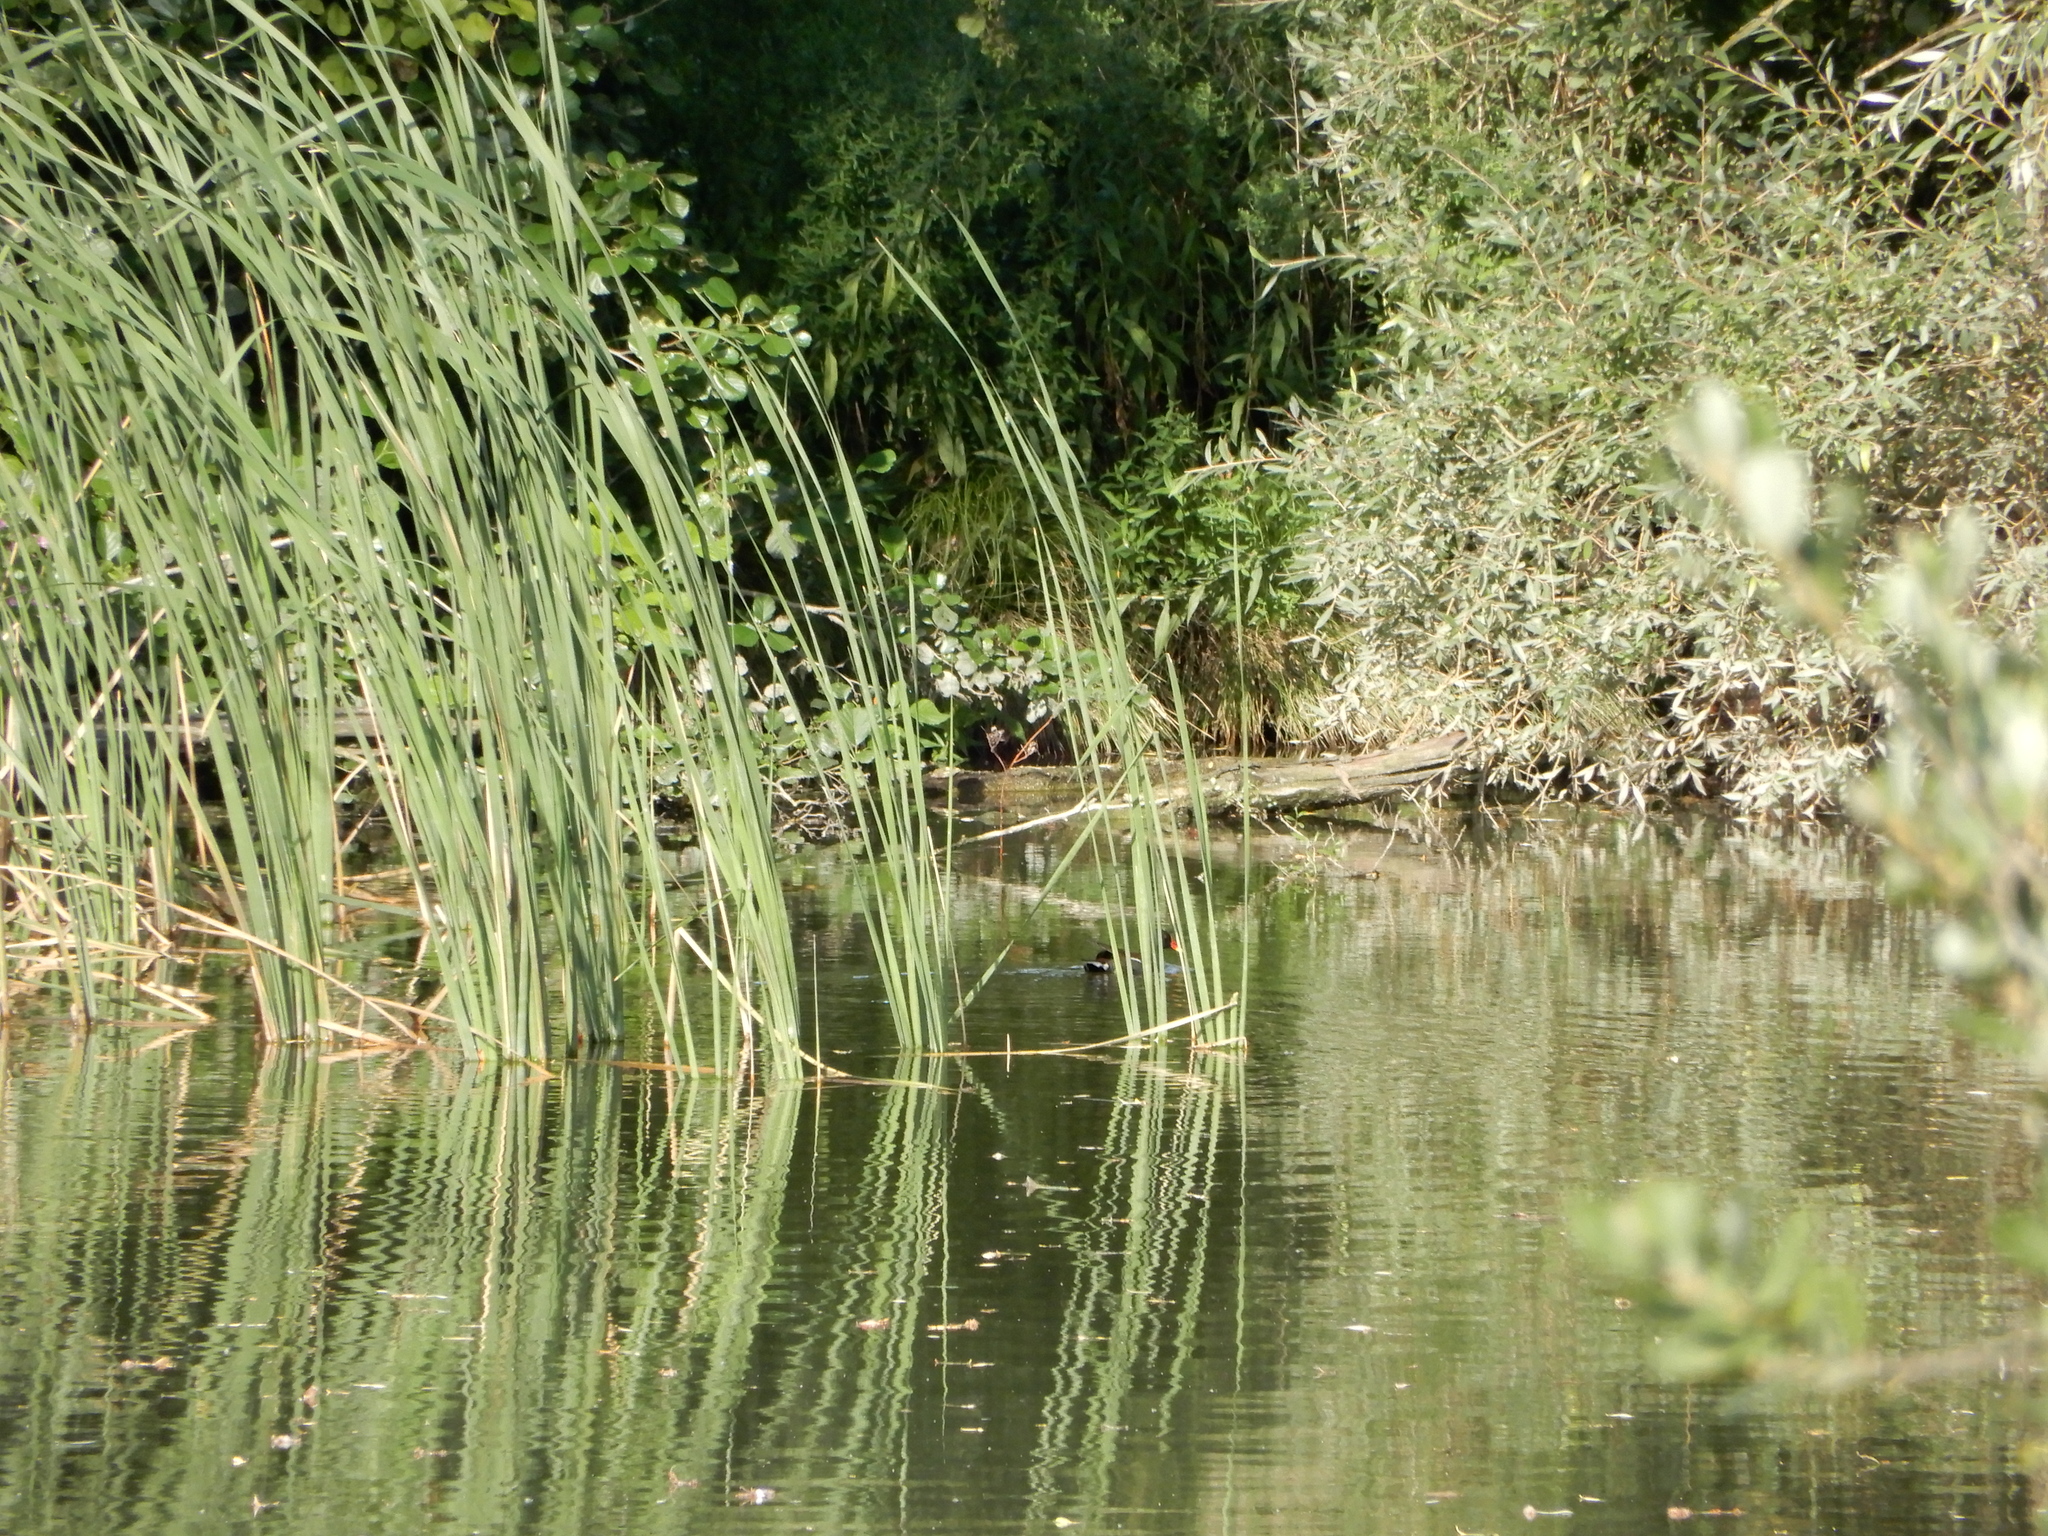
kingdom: Animalia
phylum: Chordata
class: Aves
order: Gruiformes
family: Rallidae
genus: Gallinula
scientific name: Gallinula chloropus
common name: Common moorhen
